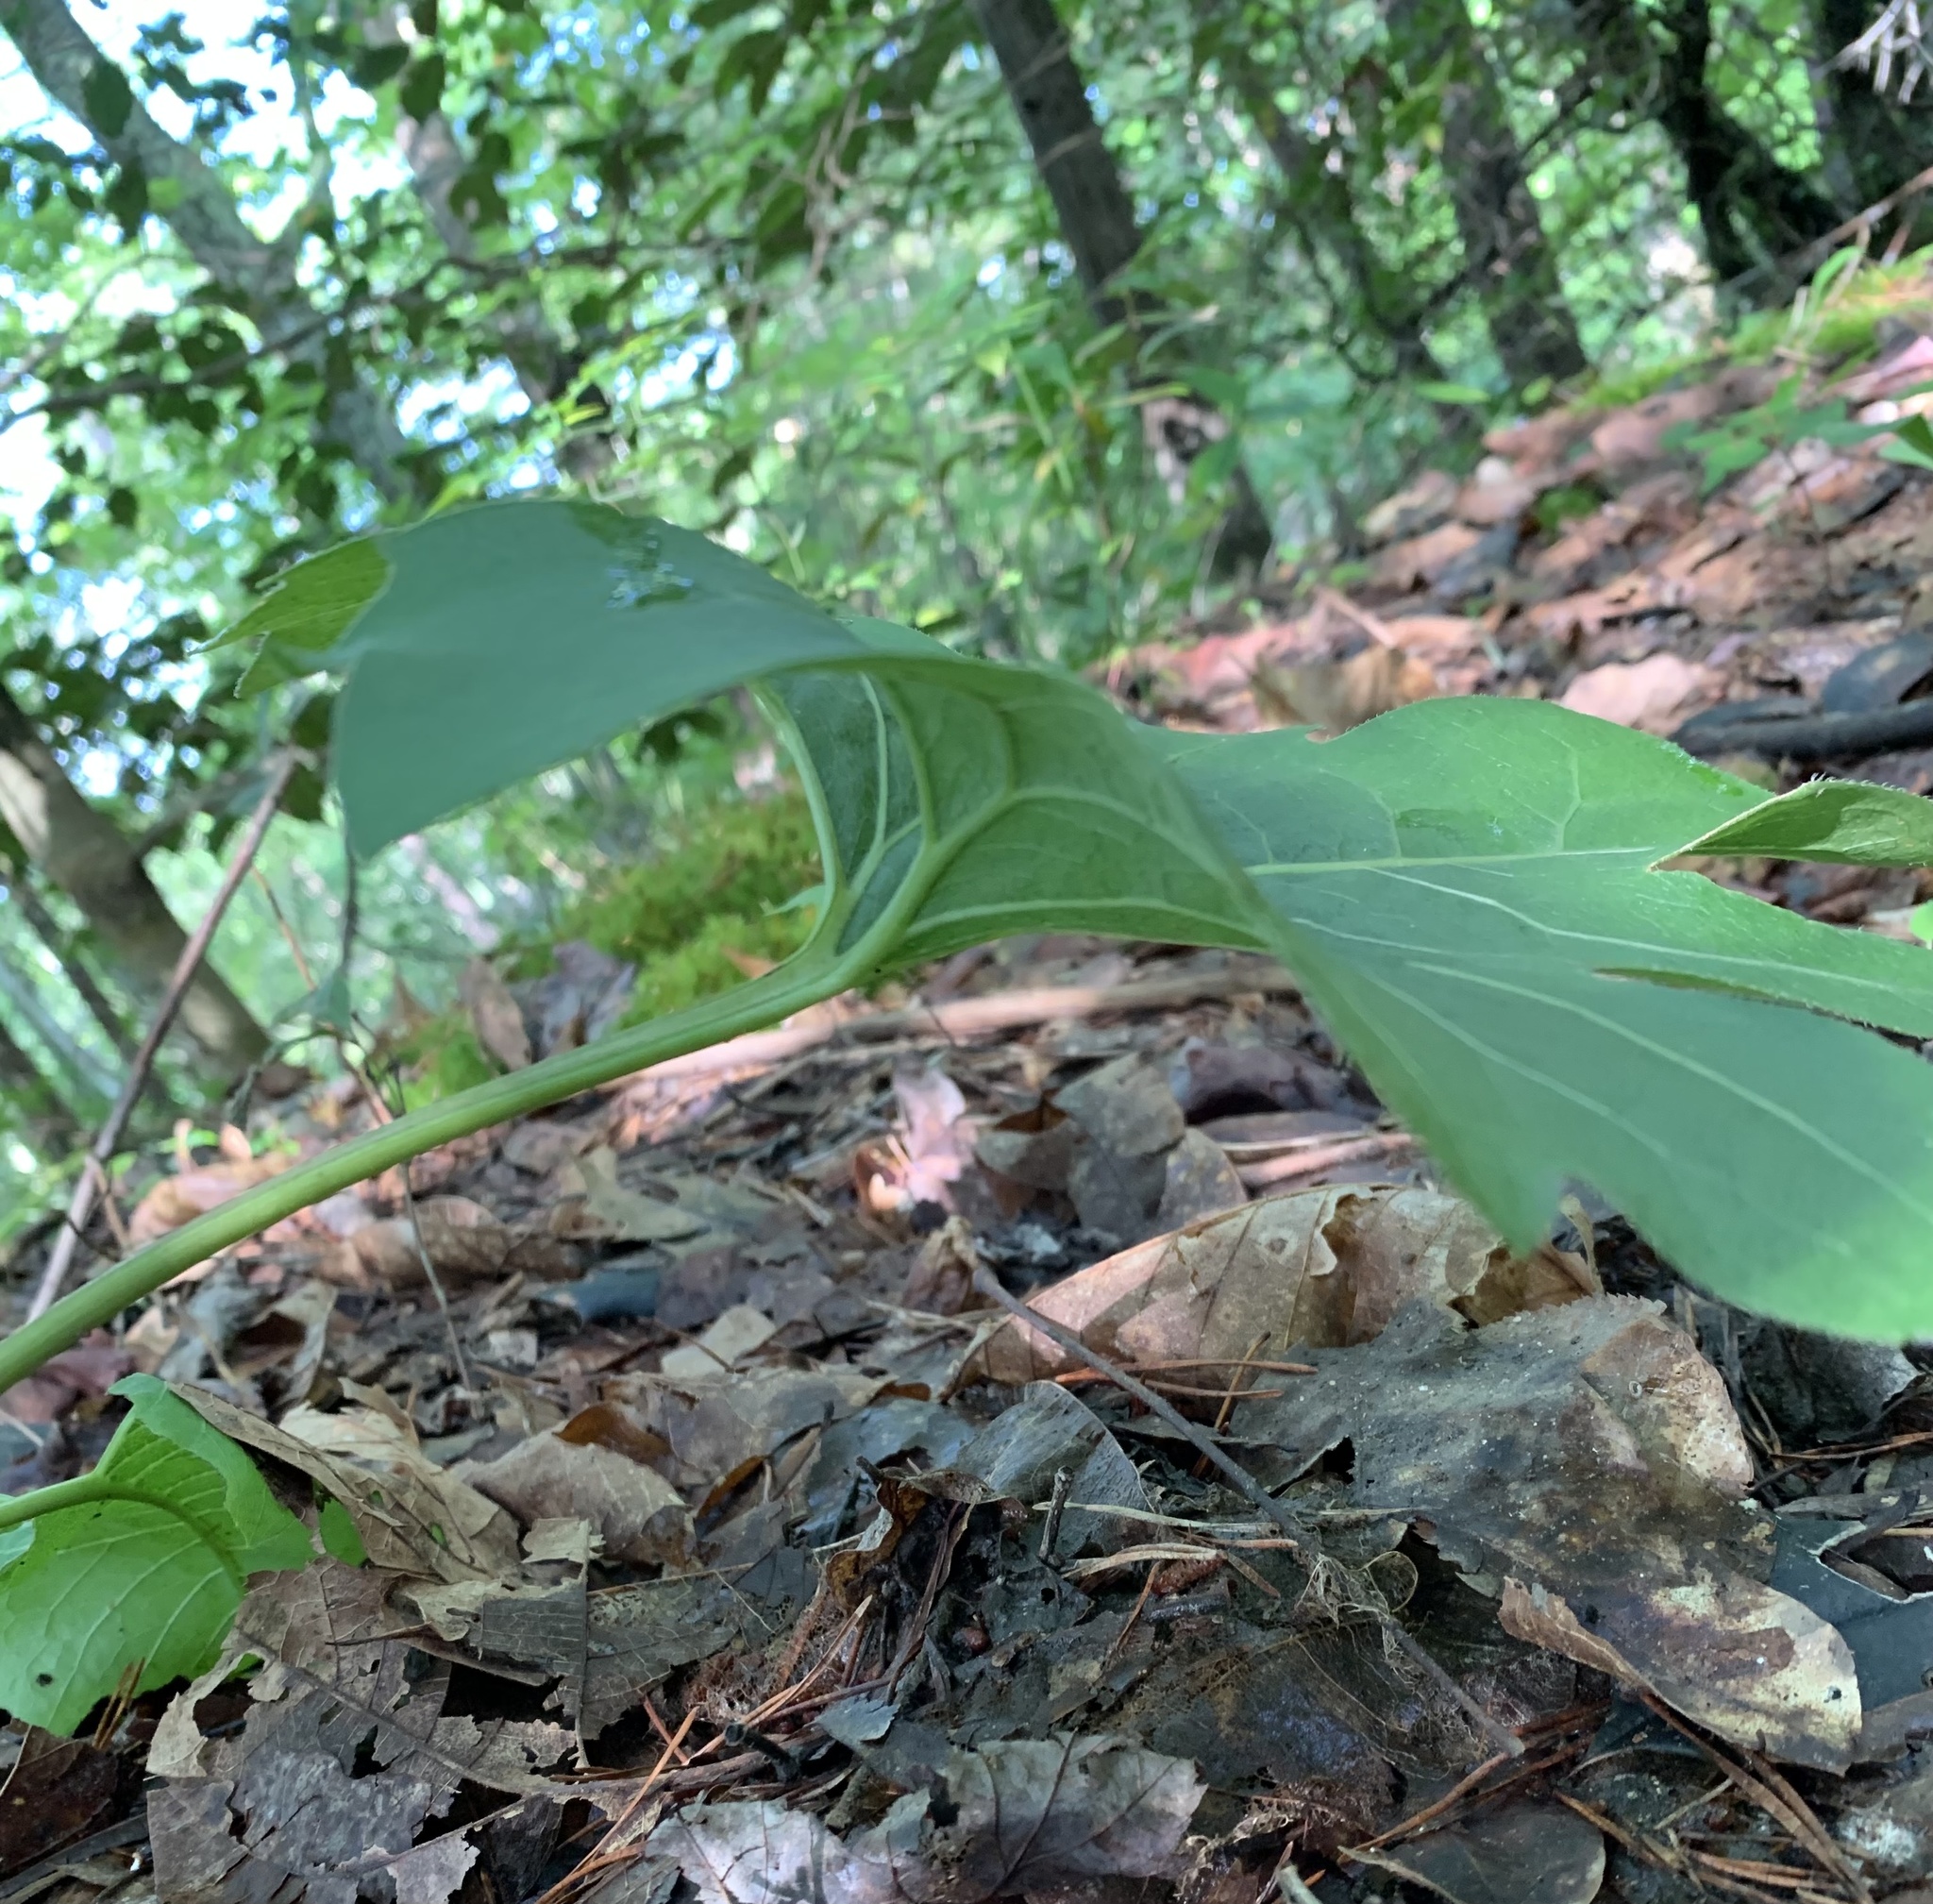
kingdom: Plantae
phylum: Tracheophyta
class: Magnoliopsida
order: Asterales
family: Asteraceae
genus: Silphium
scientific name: Silphium compositum
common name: Lesser basal-leaf rosinweed
